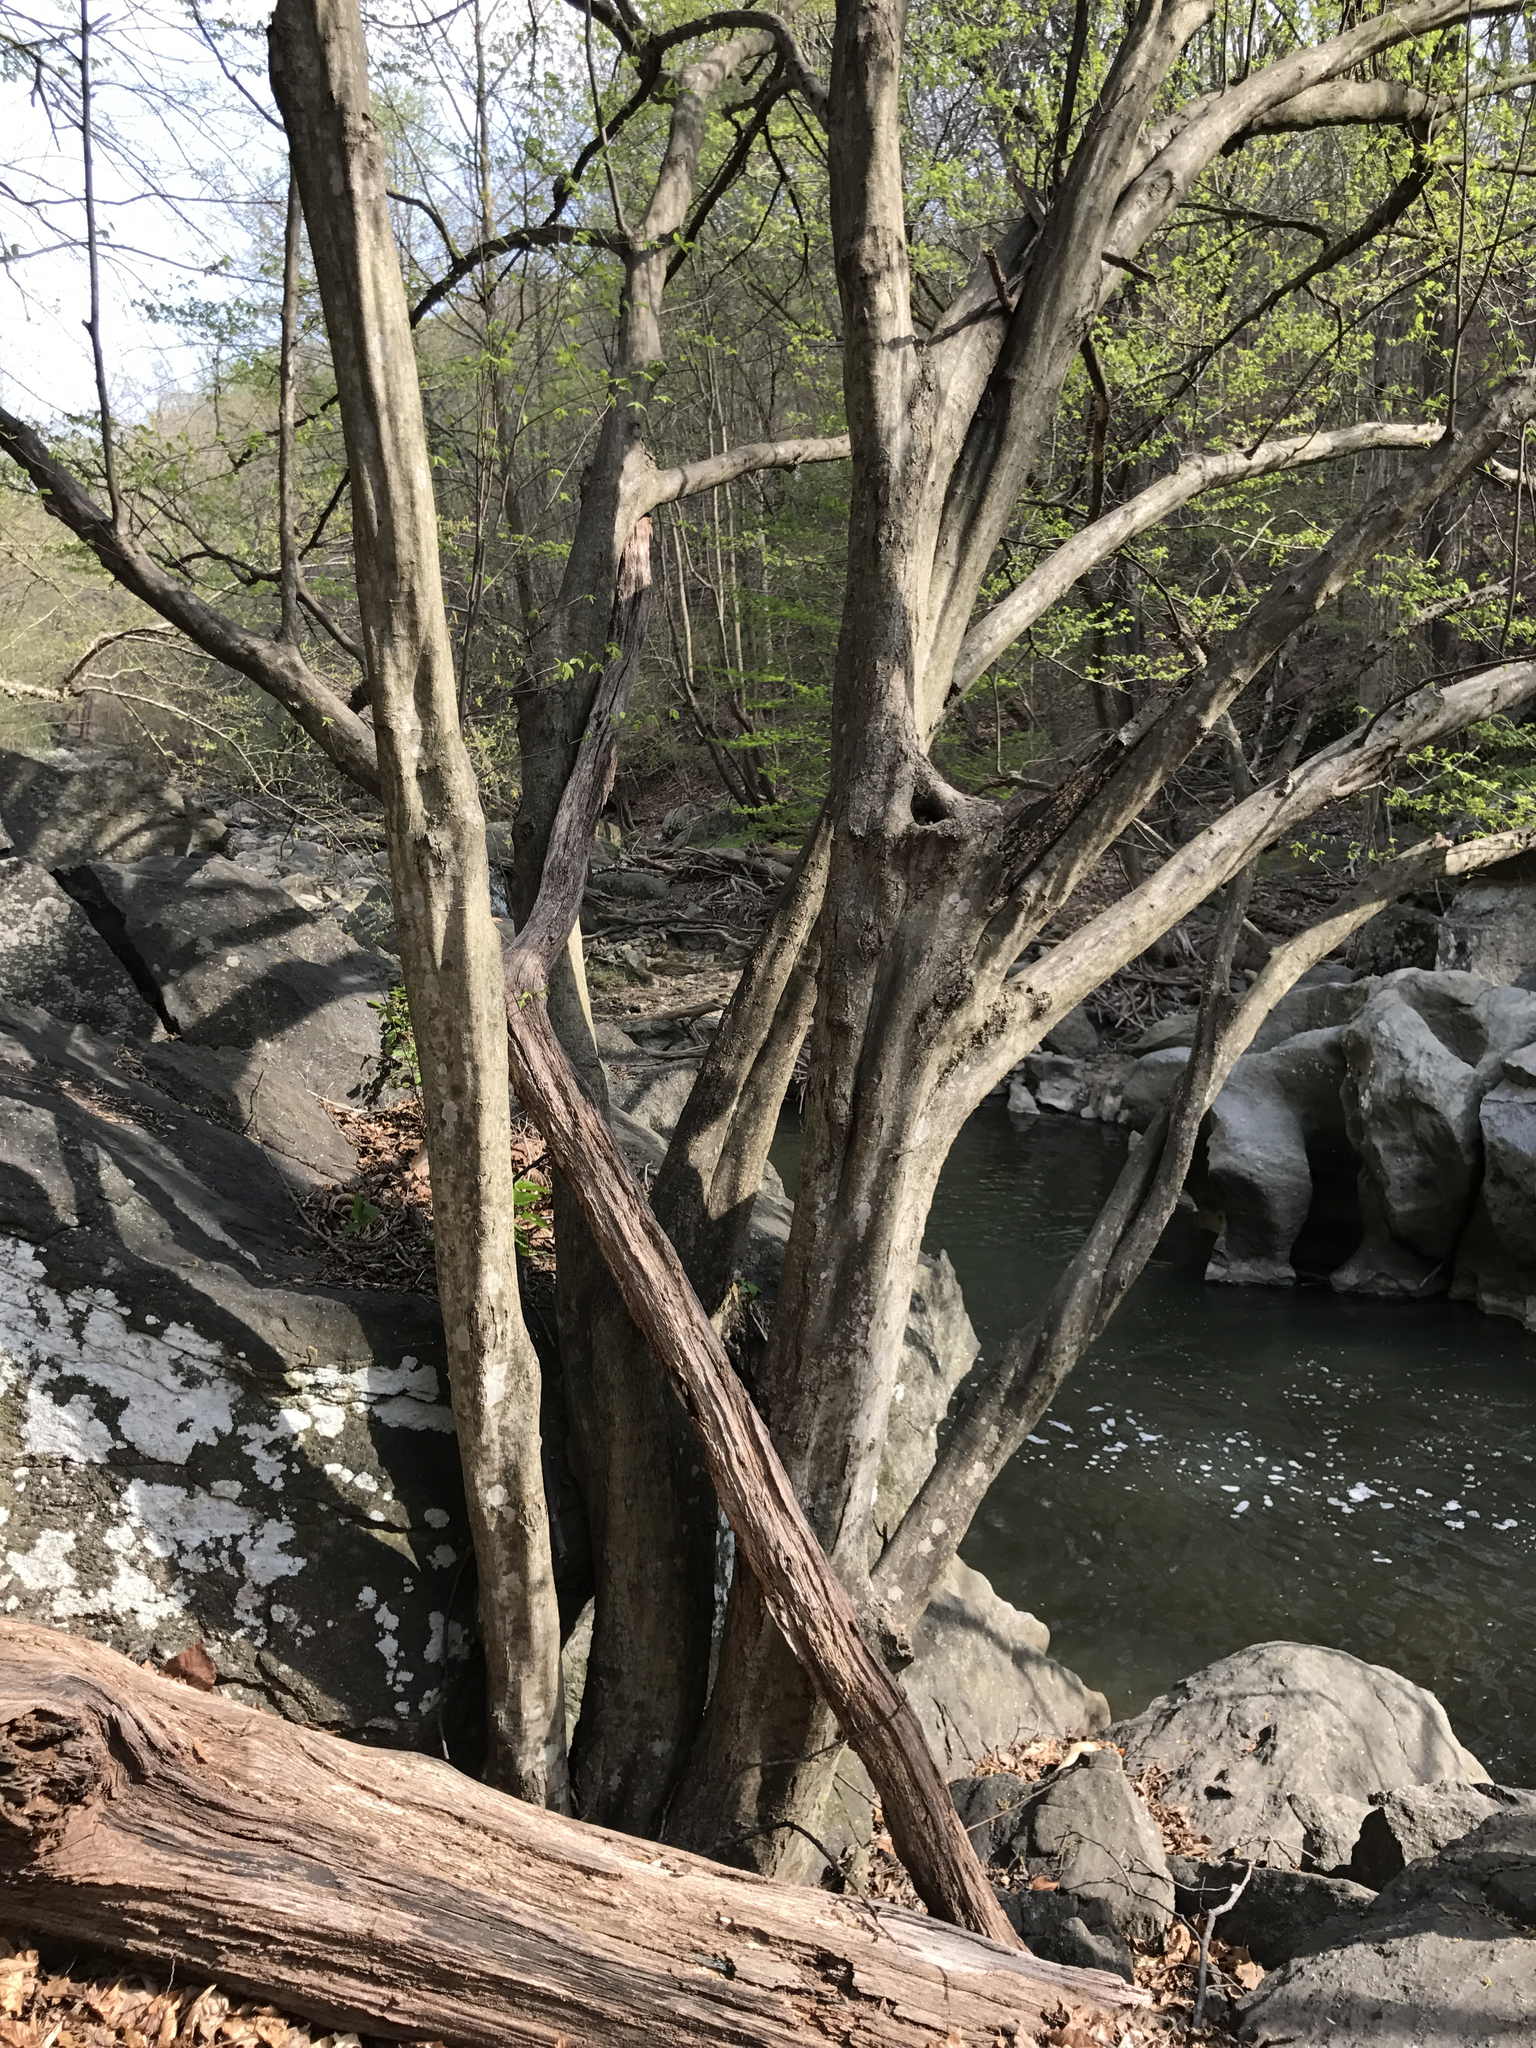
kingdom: Plantae
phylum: Tracheophyta
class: Magnoliopsida
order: Fagales
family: Betulaceae
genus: Carpinus
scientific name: Carpinus caroliniana
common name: American hornbeam
